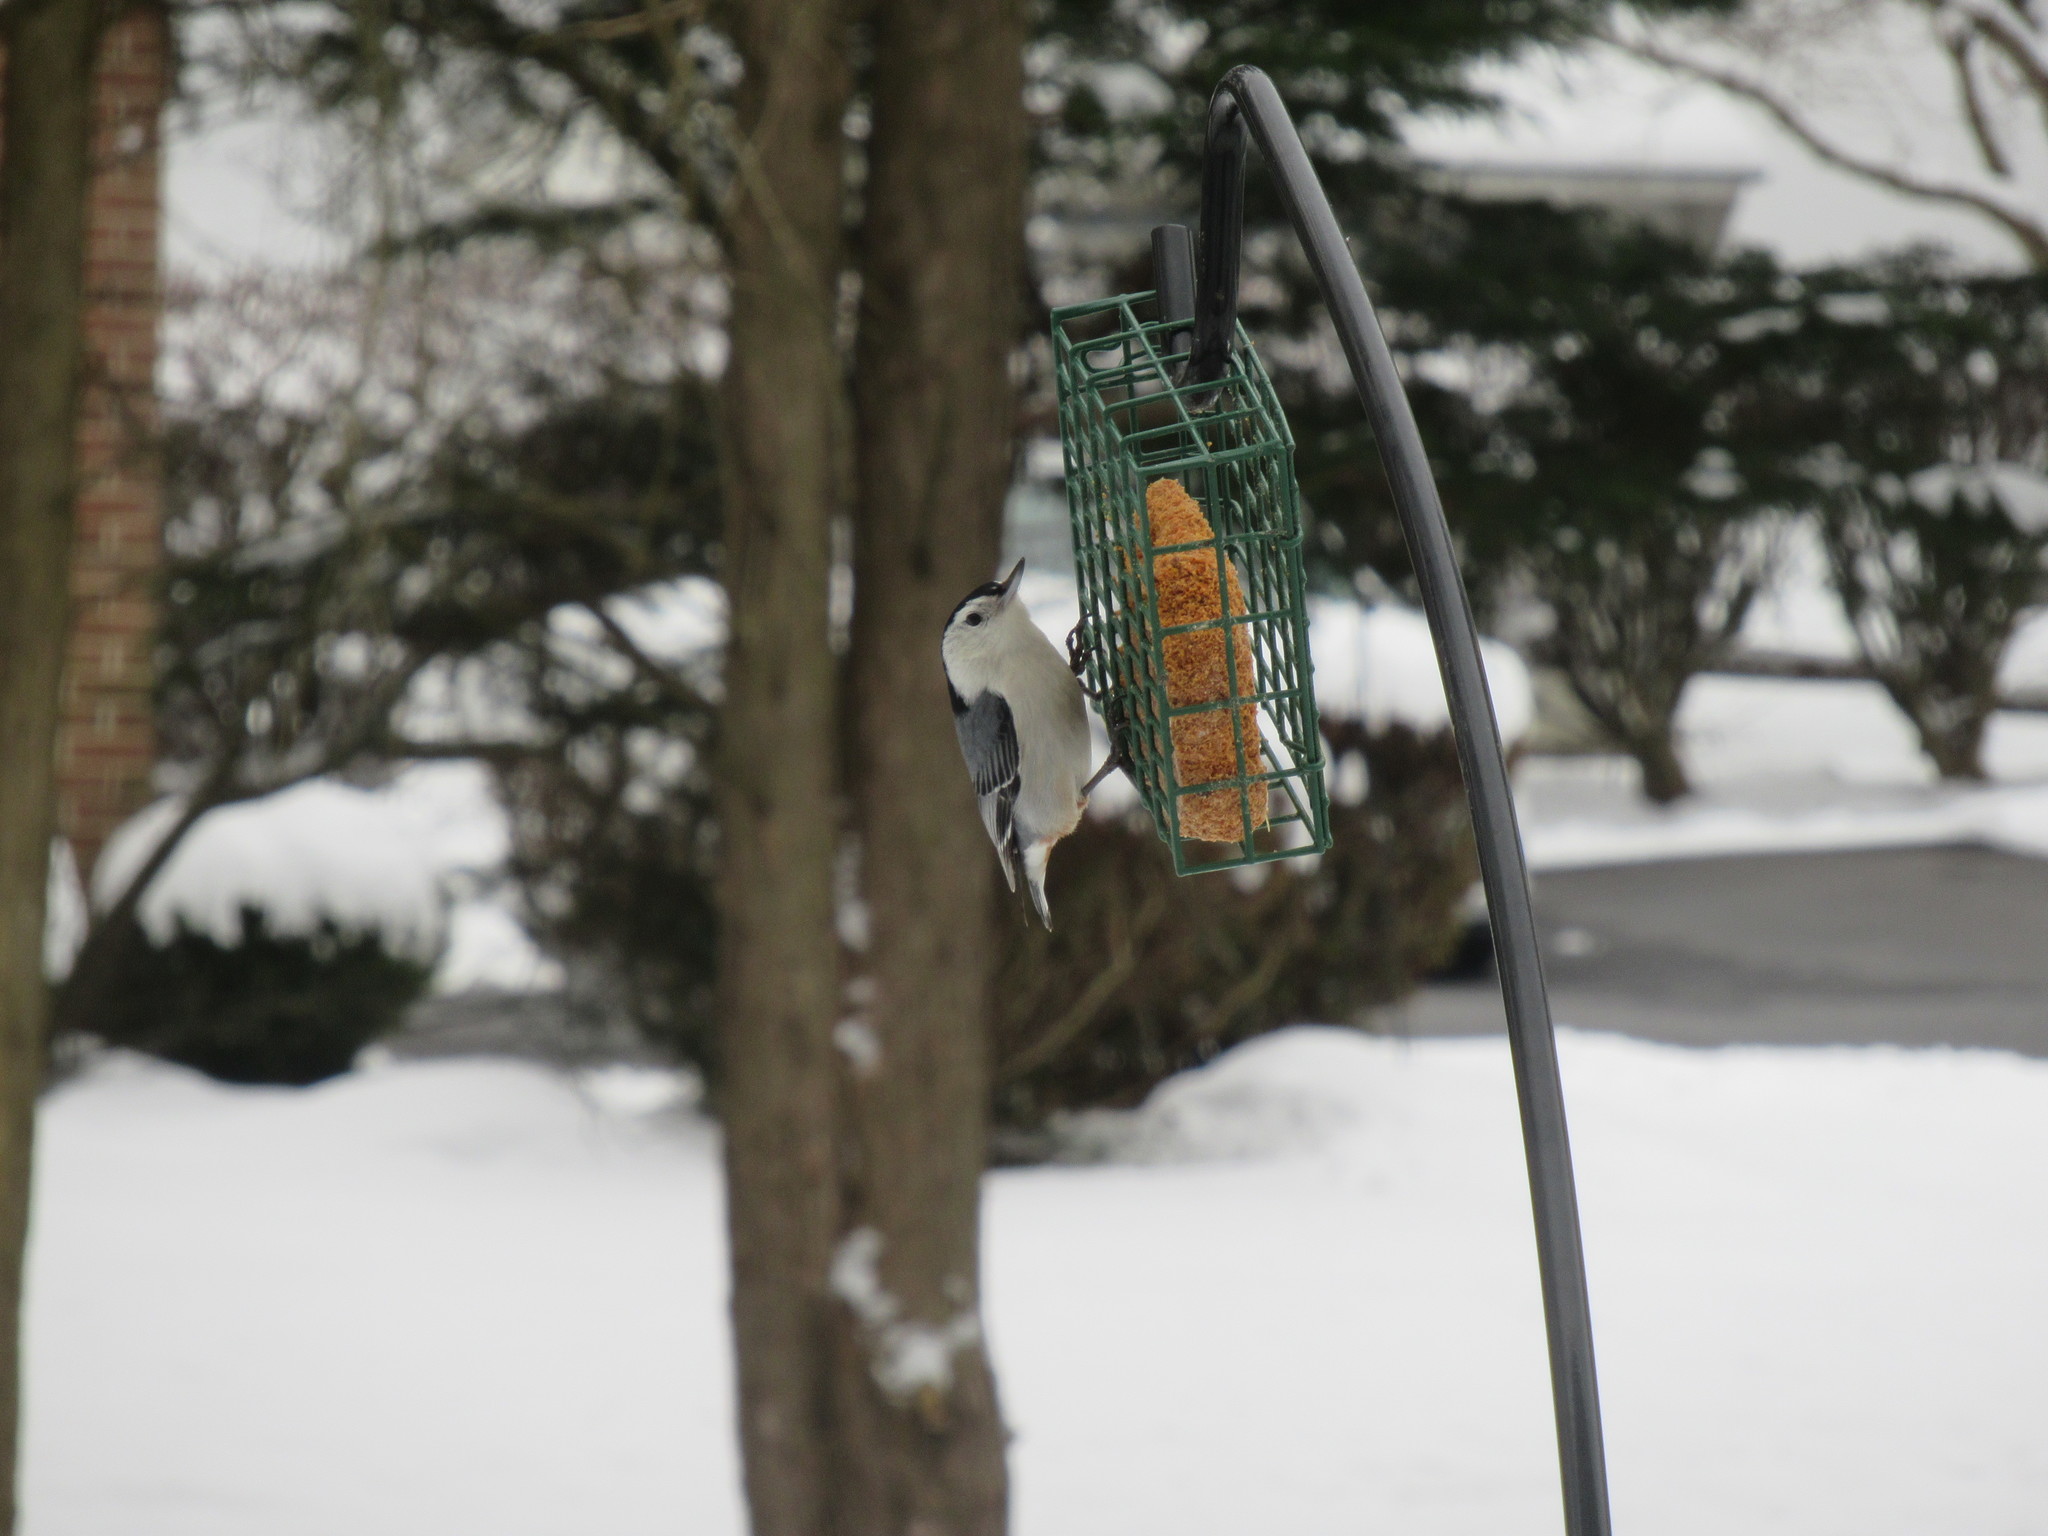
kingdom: Animalia
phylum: Chordata
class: Aves
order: Passeriformes
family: Sittidae
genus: Sitta
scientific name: Sitta carolinensis
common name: White-breasted nuthatch
